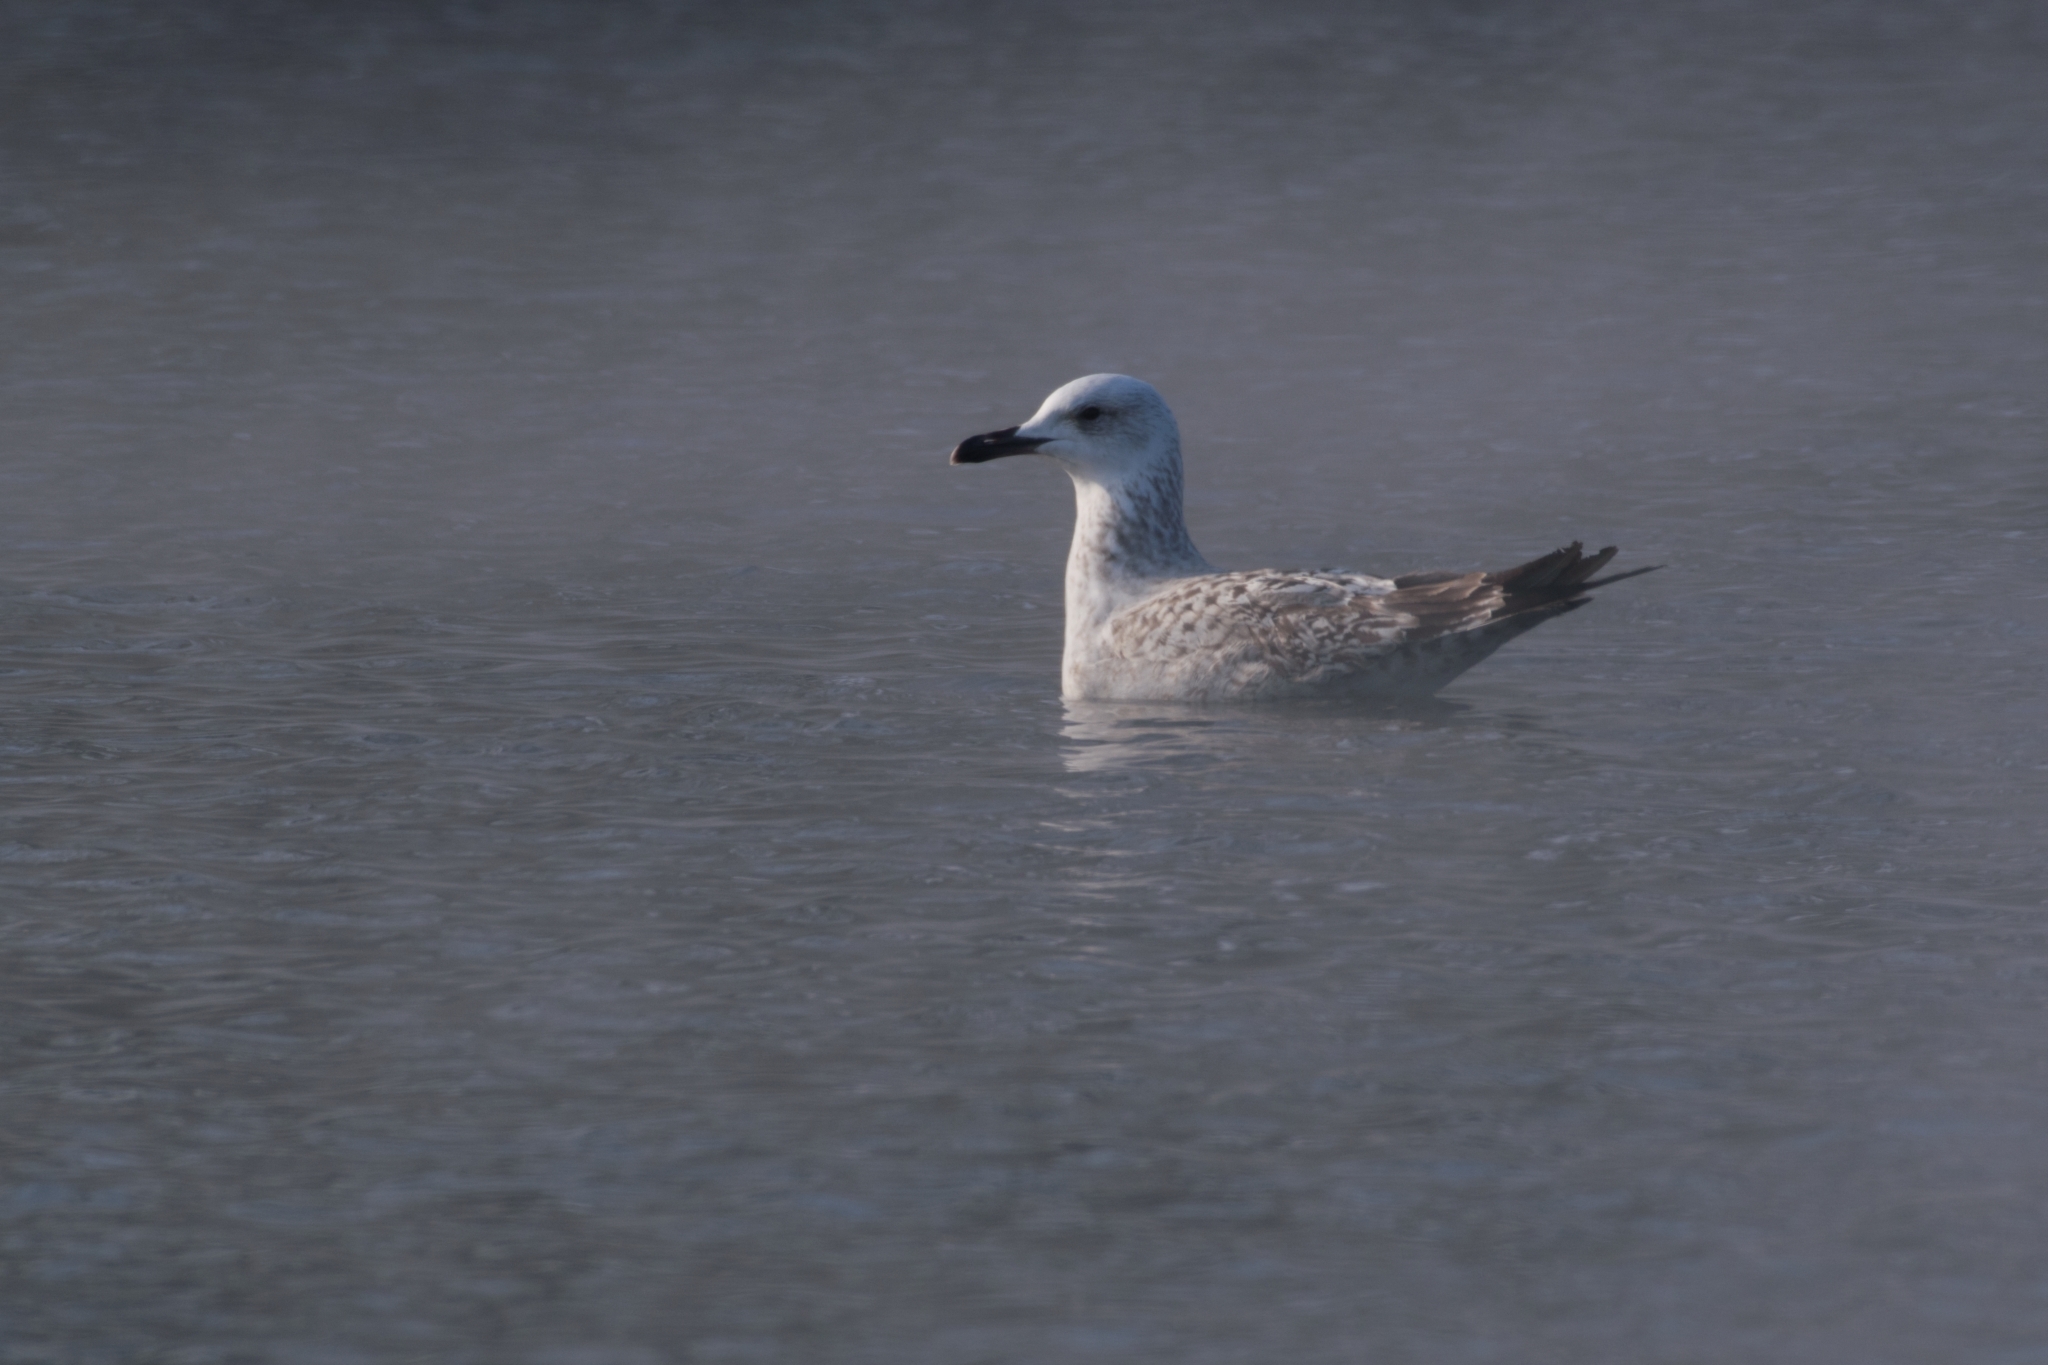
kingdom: Animalia
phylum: Chordata
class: Aves
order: Charadriiformes
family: Laridae
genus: Larus
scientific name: Larus cachinnans
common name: Caspian gull
